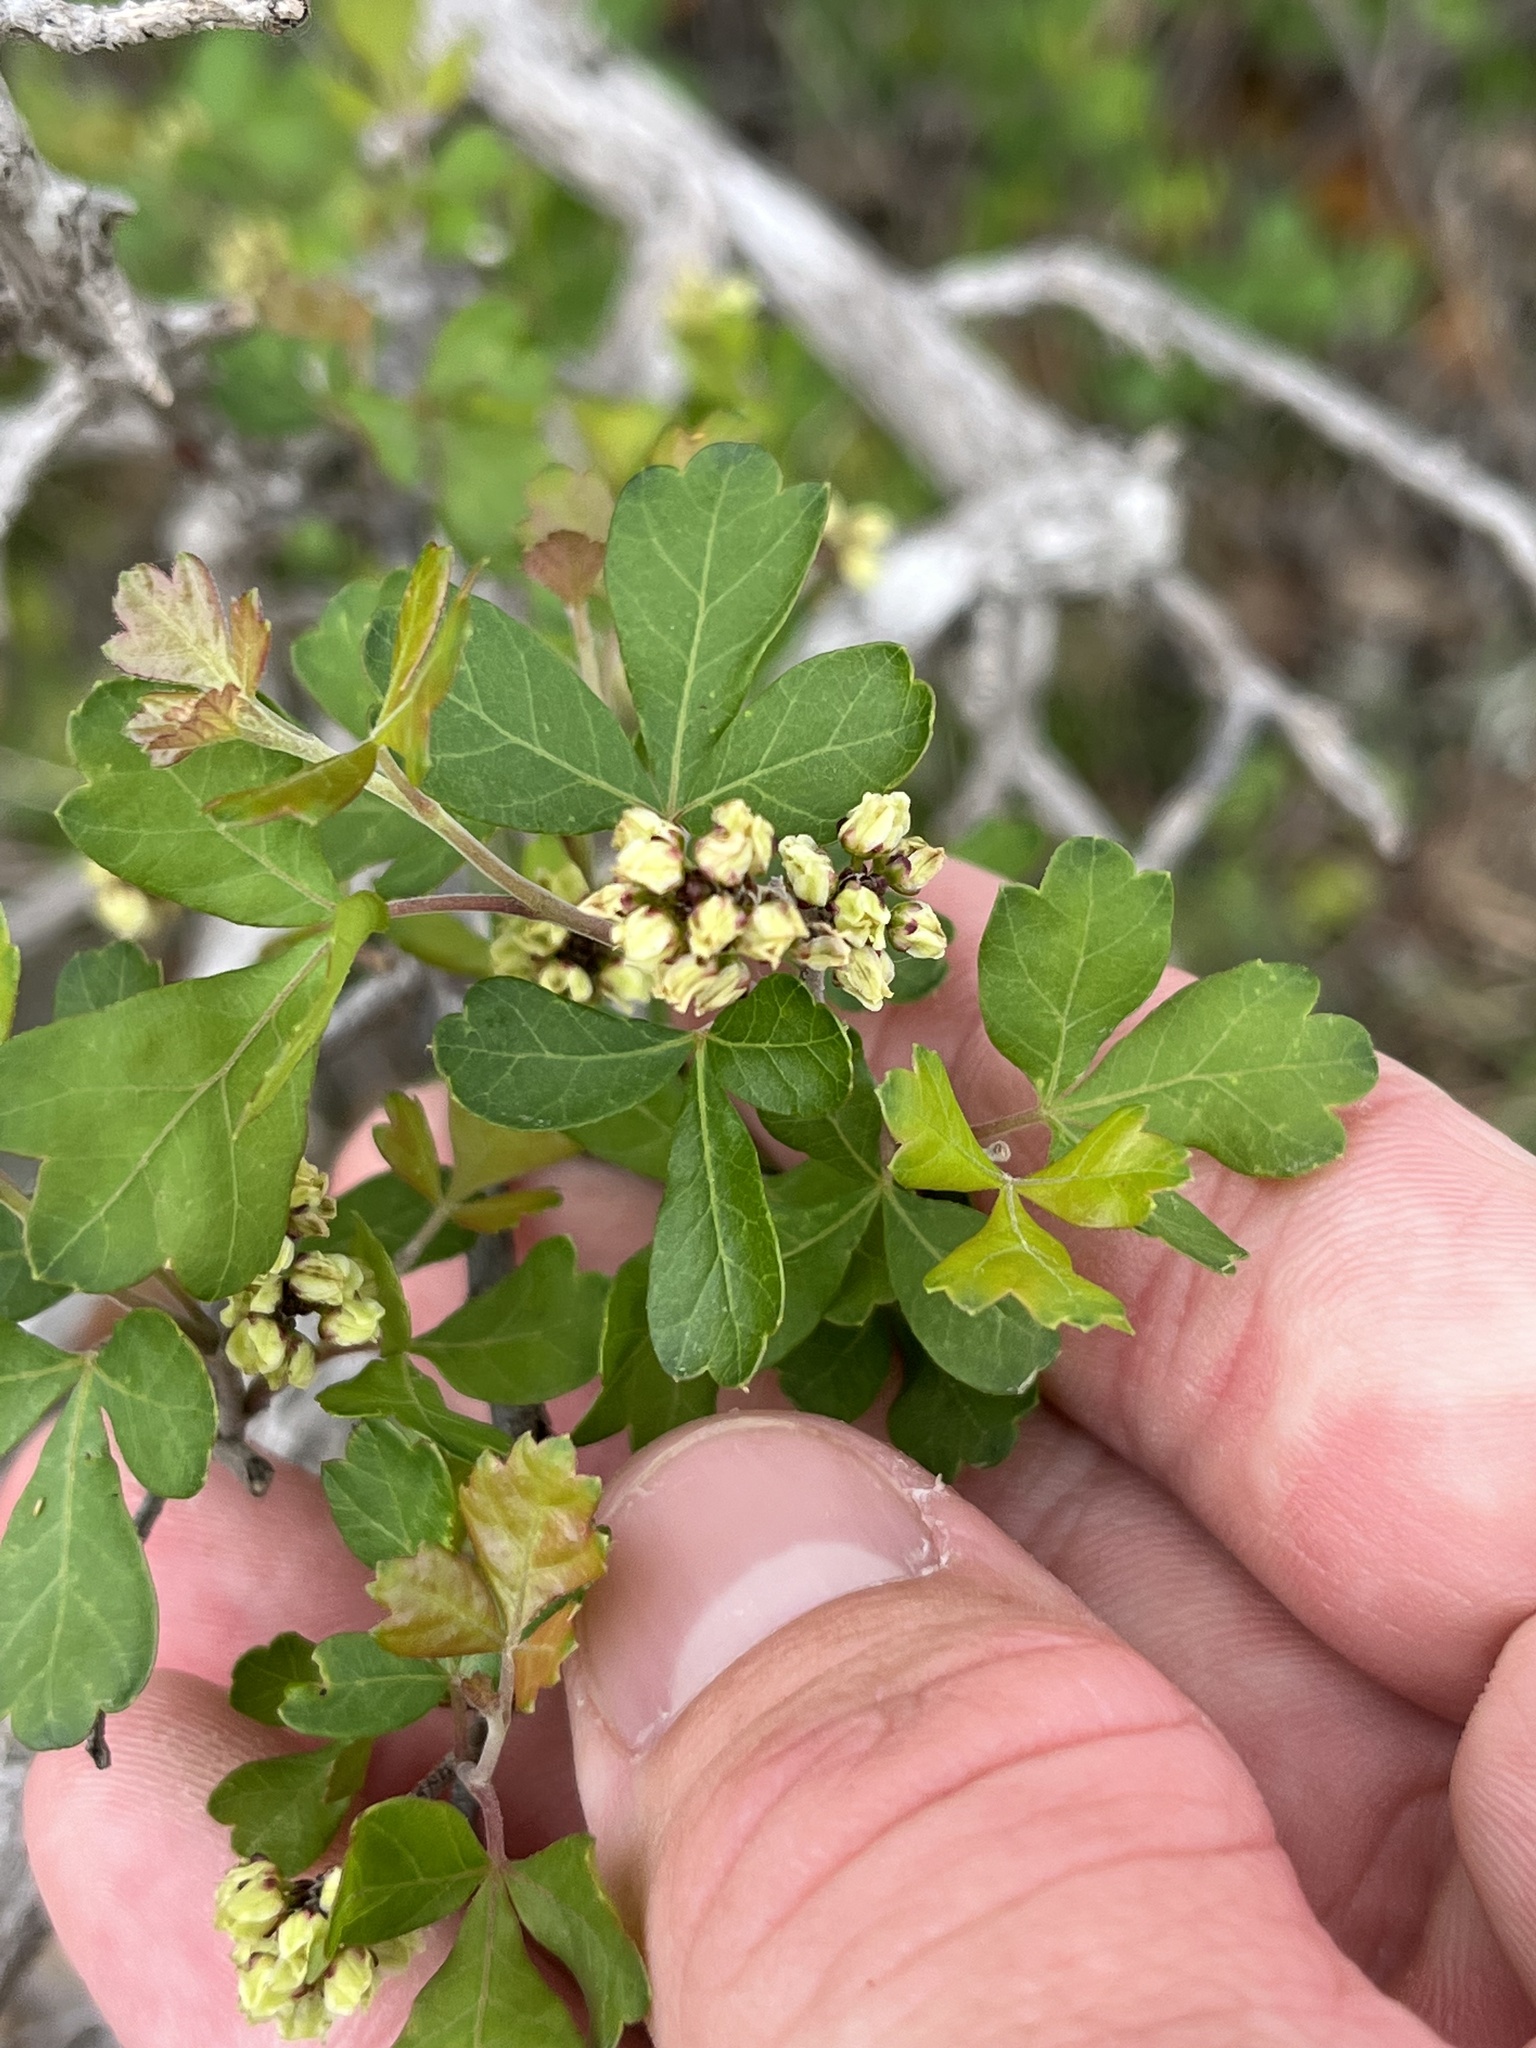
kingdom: Plantae
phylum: Tracheophyta
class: Magnoliopsida
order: Sapindales
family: Anacardiaceae
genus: Rhus
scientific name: Rhus aromatica
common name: Aromatic sumac
